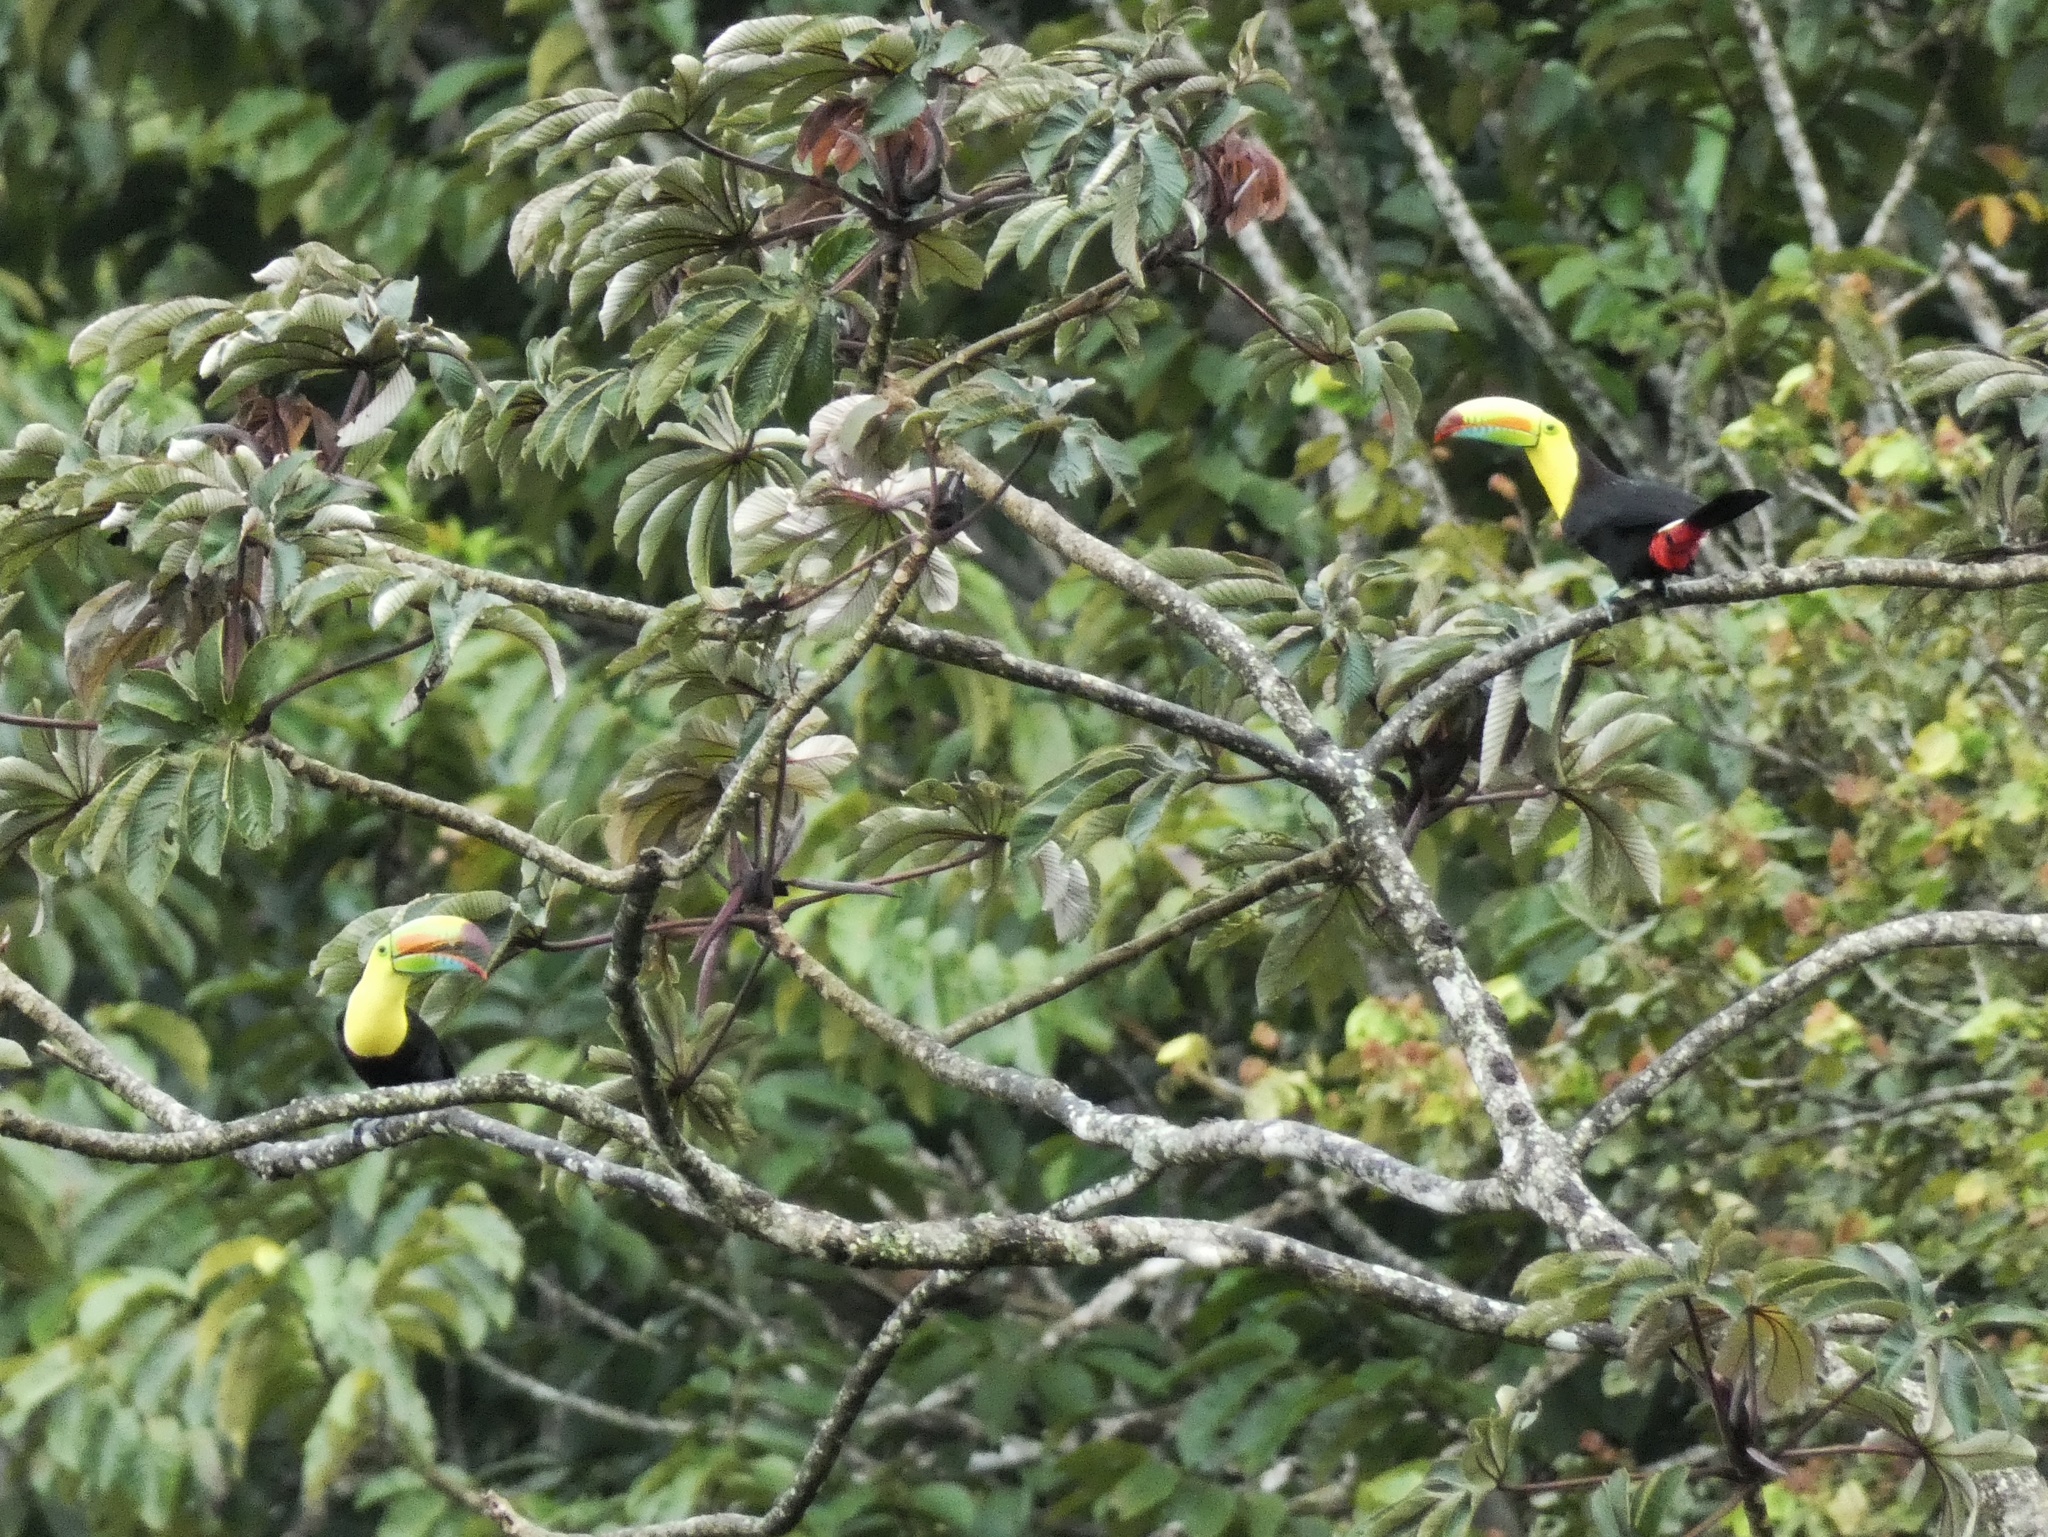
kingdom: Animalia
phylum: Chordata
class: Aves
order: Piciformes
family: Ramphastidae
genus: Ramphastos
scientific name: Ramphastos sulfuratus
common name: Keel-billed toucan
